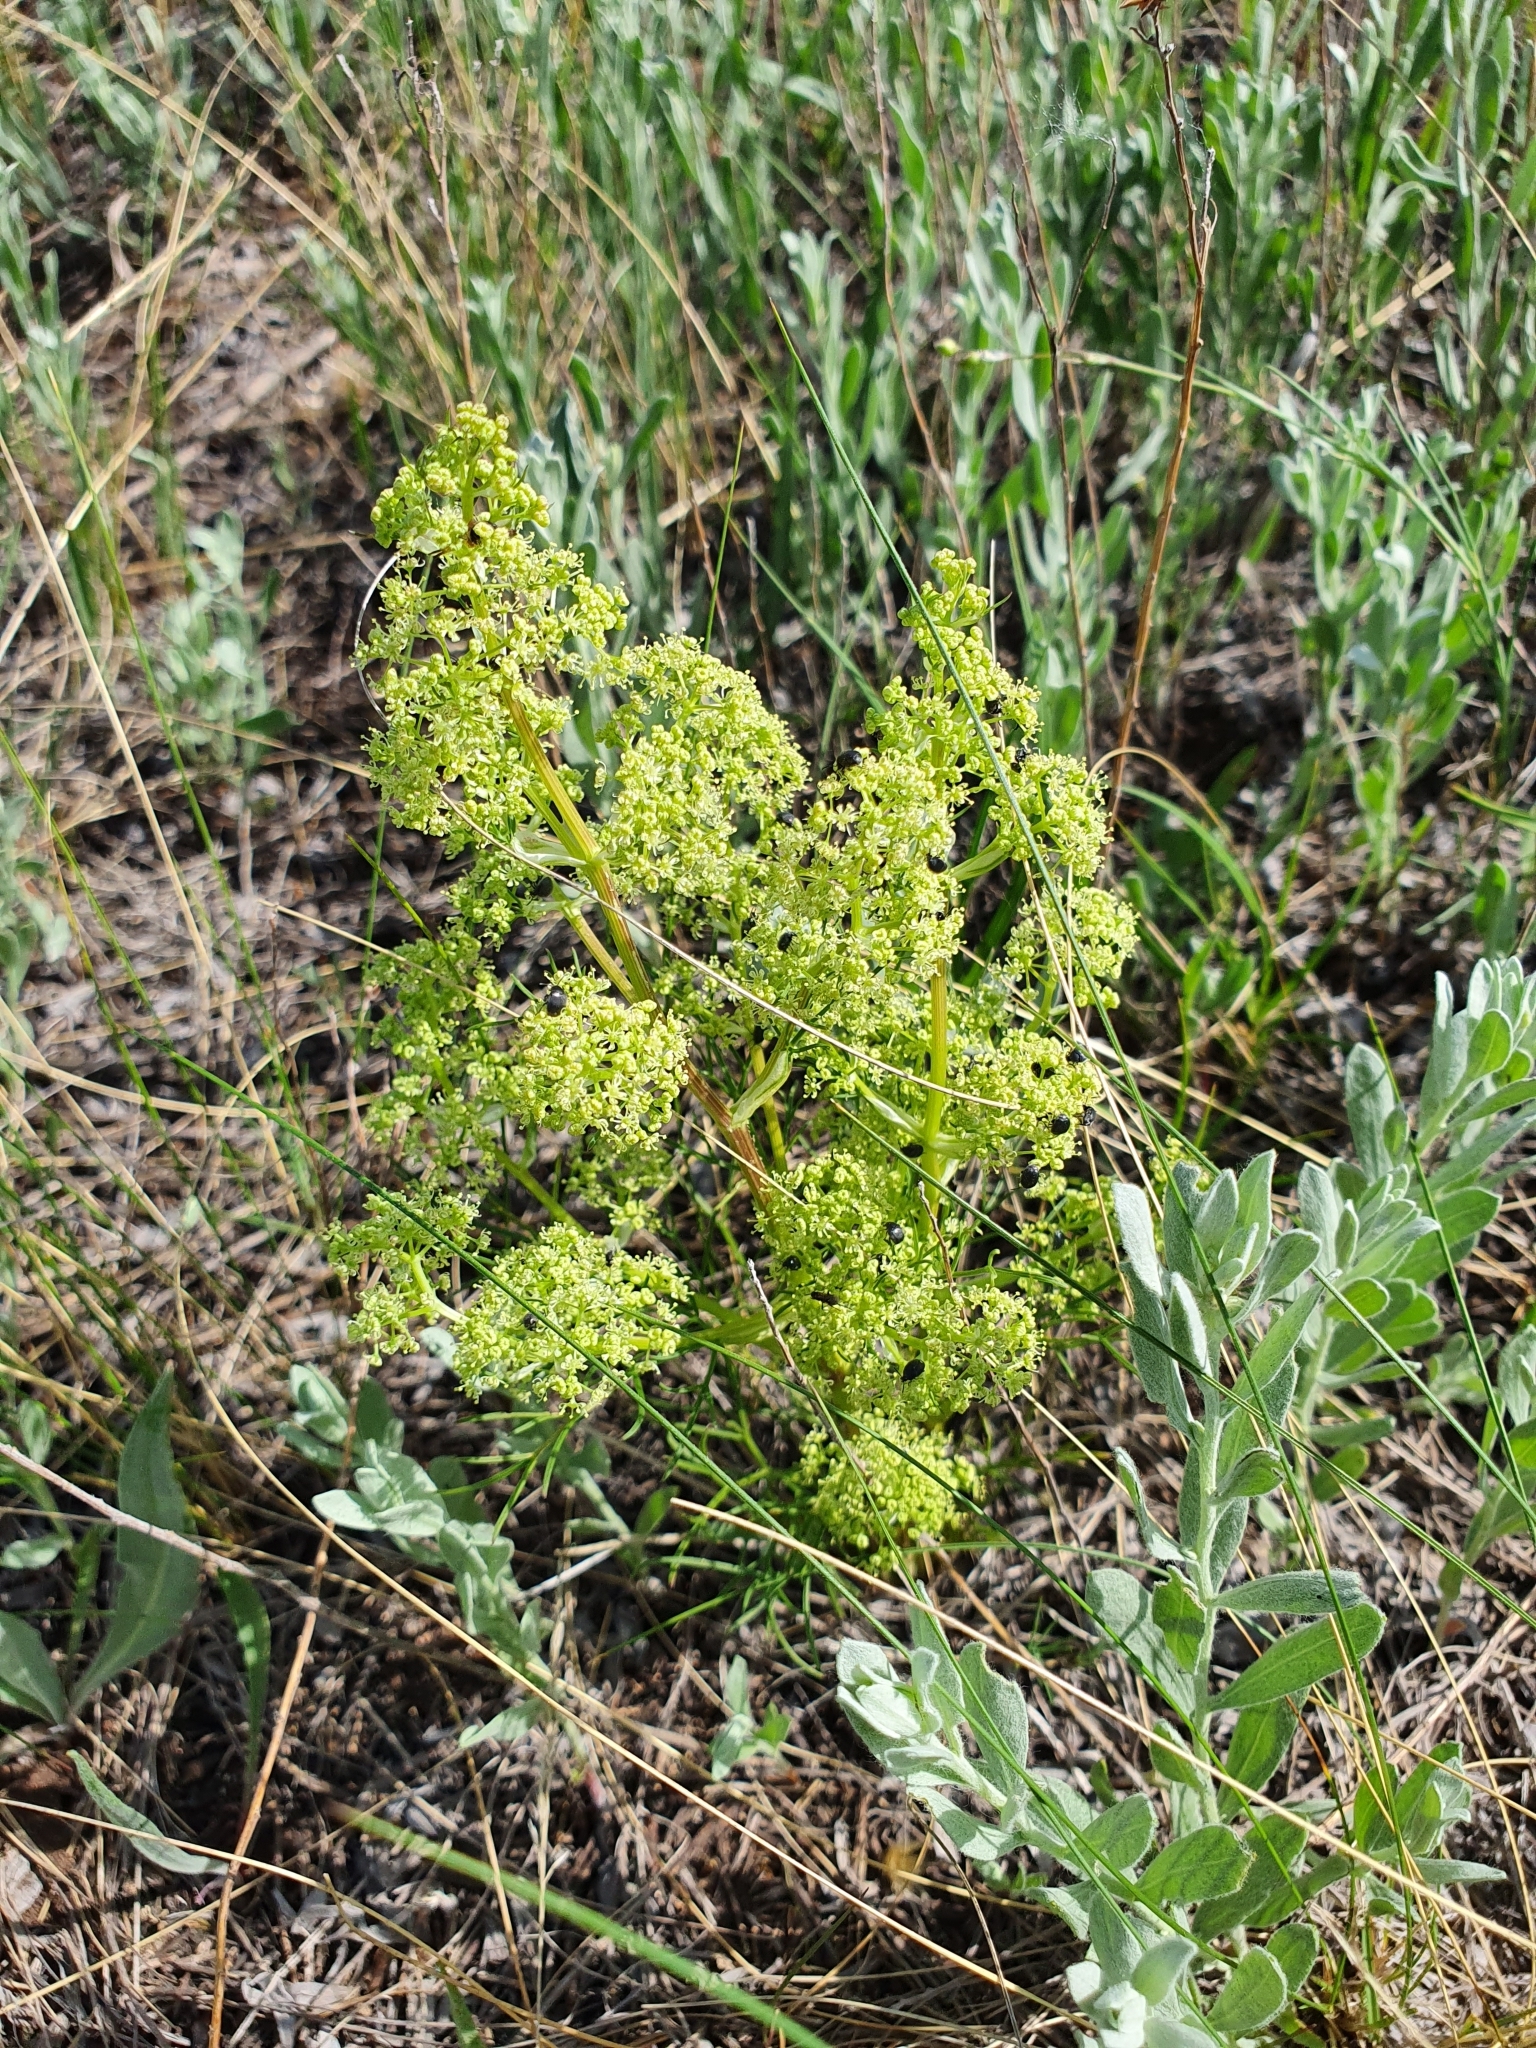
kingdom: Plantae
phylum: Tracheophyta
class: Magnoliopsida
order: Apiales
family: Apiaceae
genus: Trinia
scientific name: Trinia multicaulis
